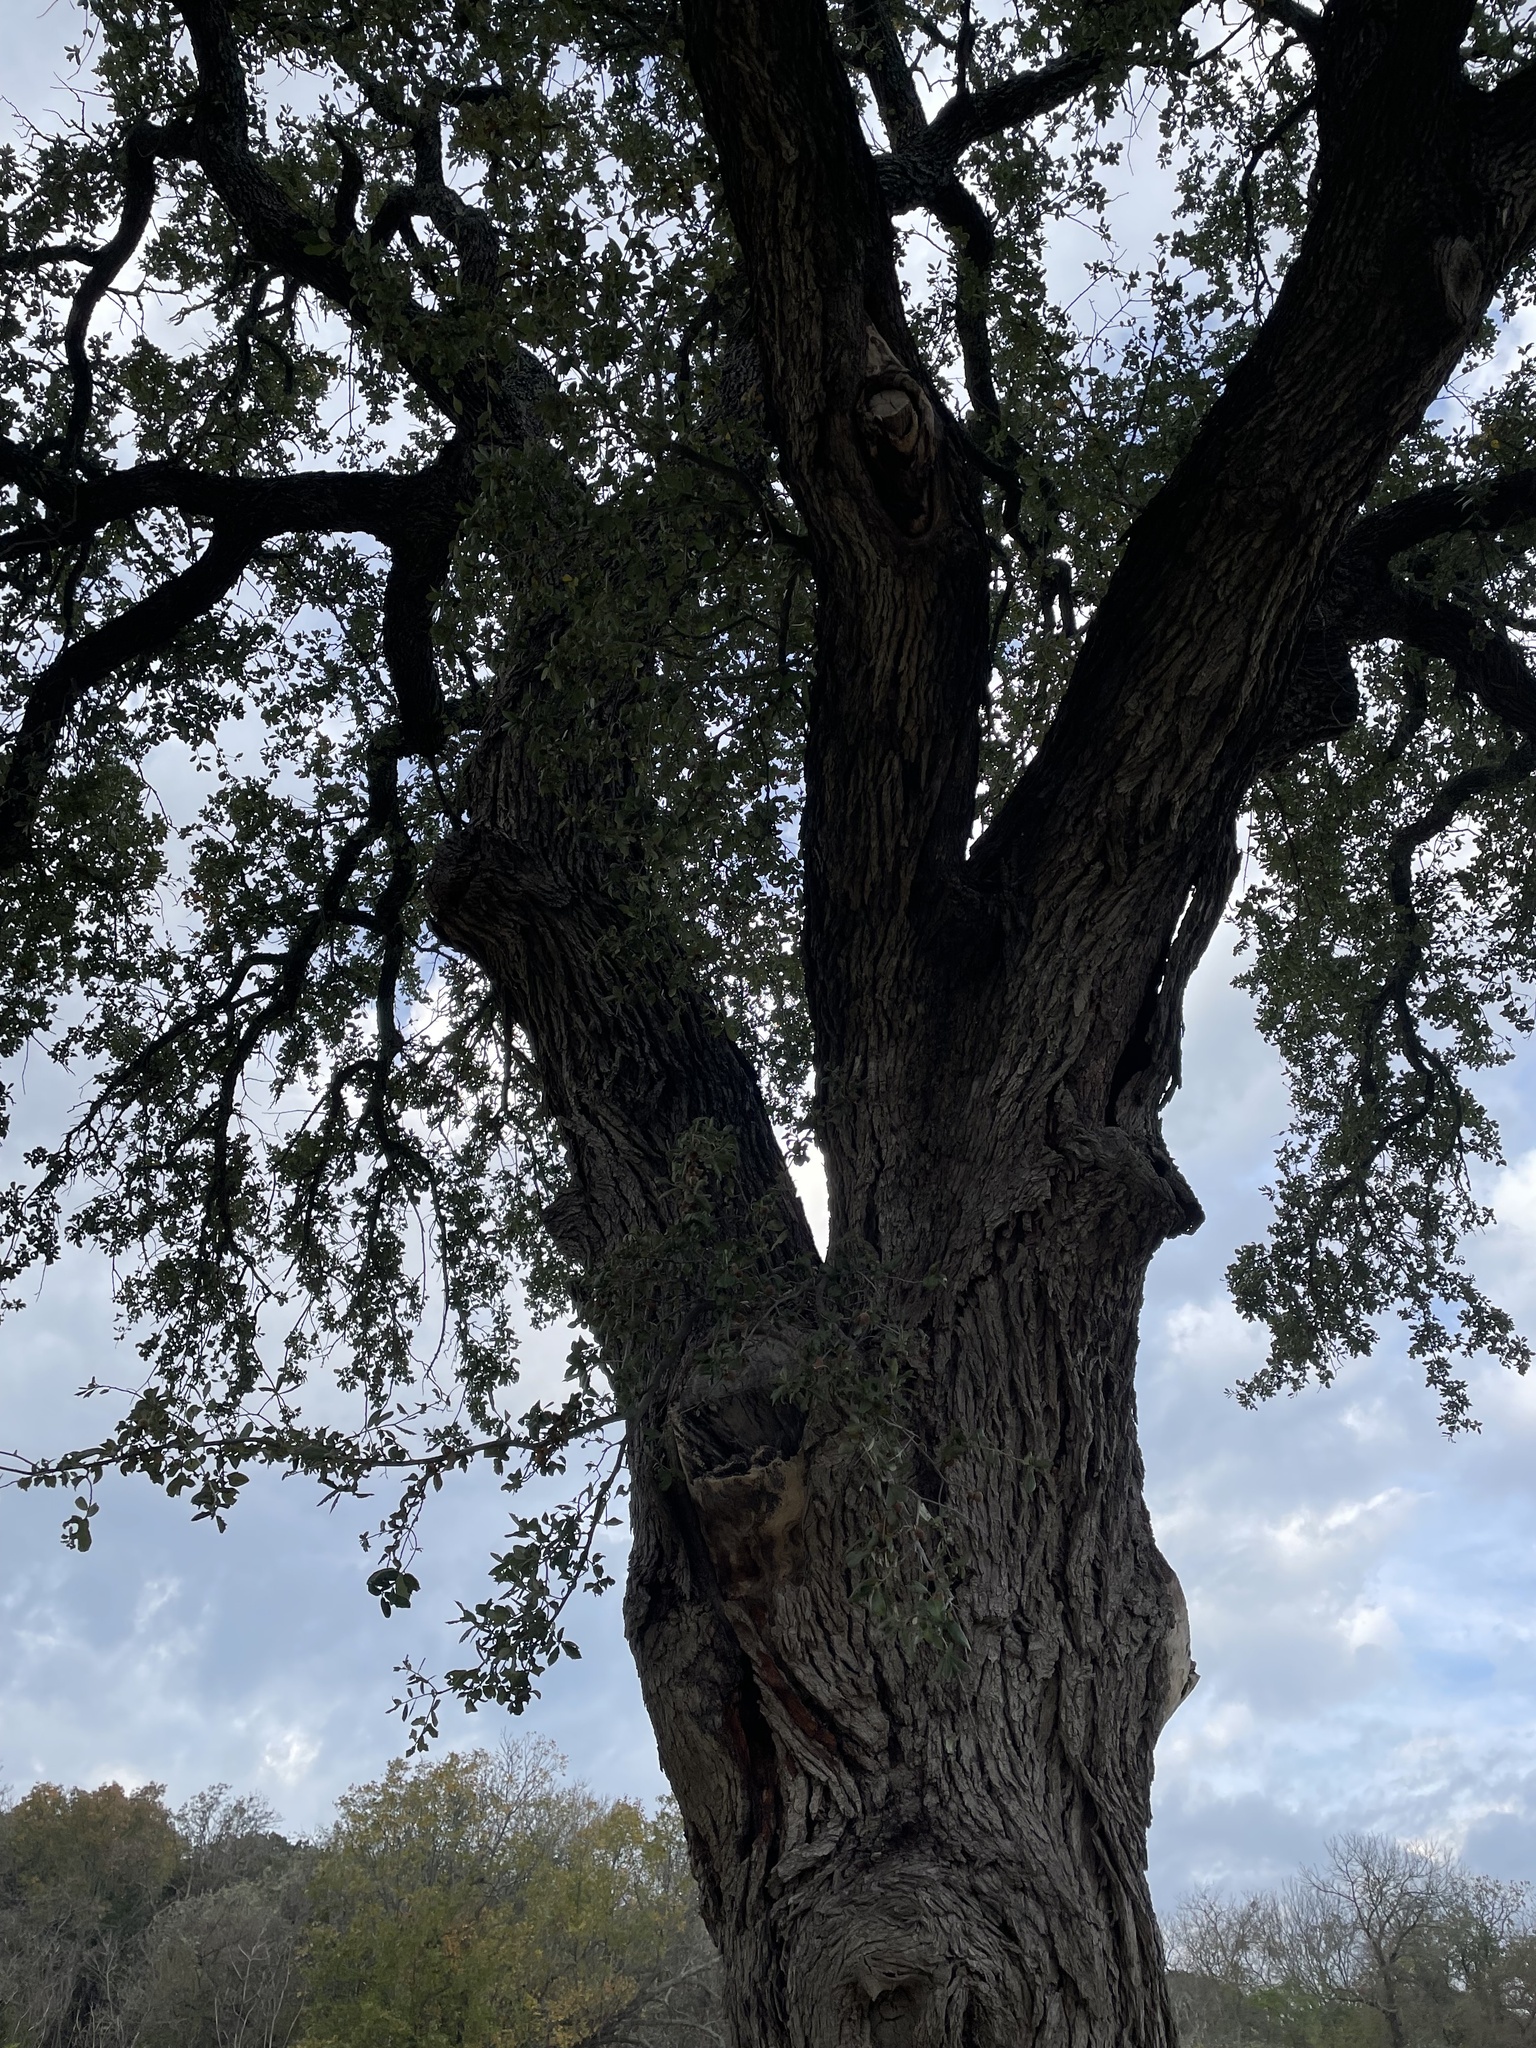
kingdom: Plantae
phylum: Tracheophyta
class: Magnoliopsida
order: Fagales
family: Fagaceae
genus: Quercus
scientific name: Quercus fusiformis
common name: Texas live oak
